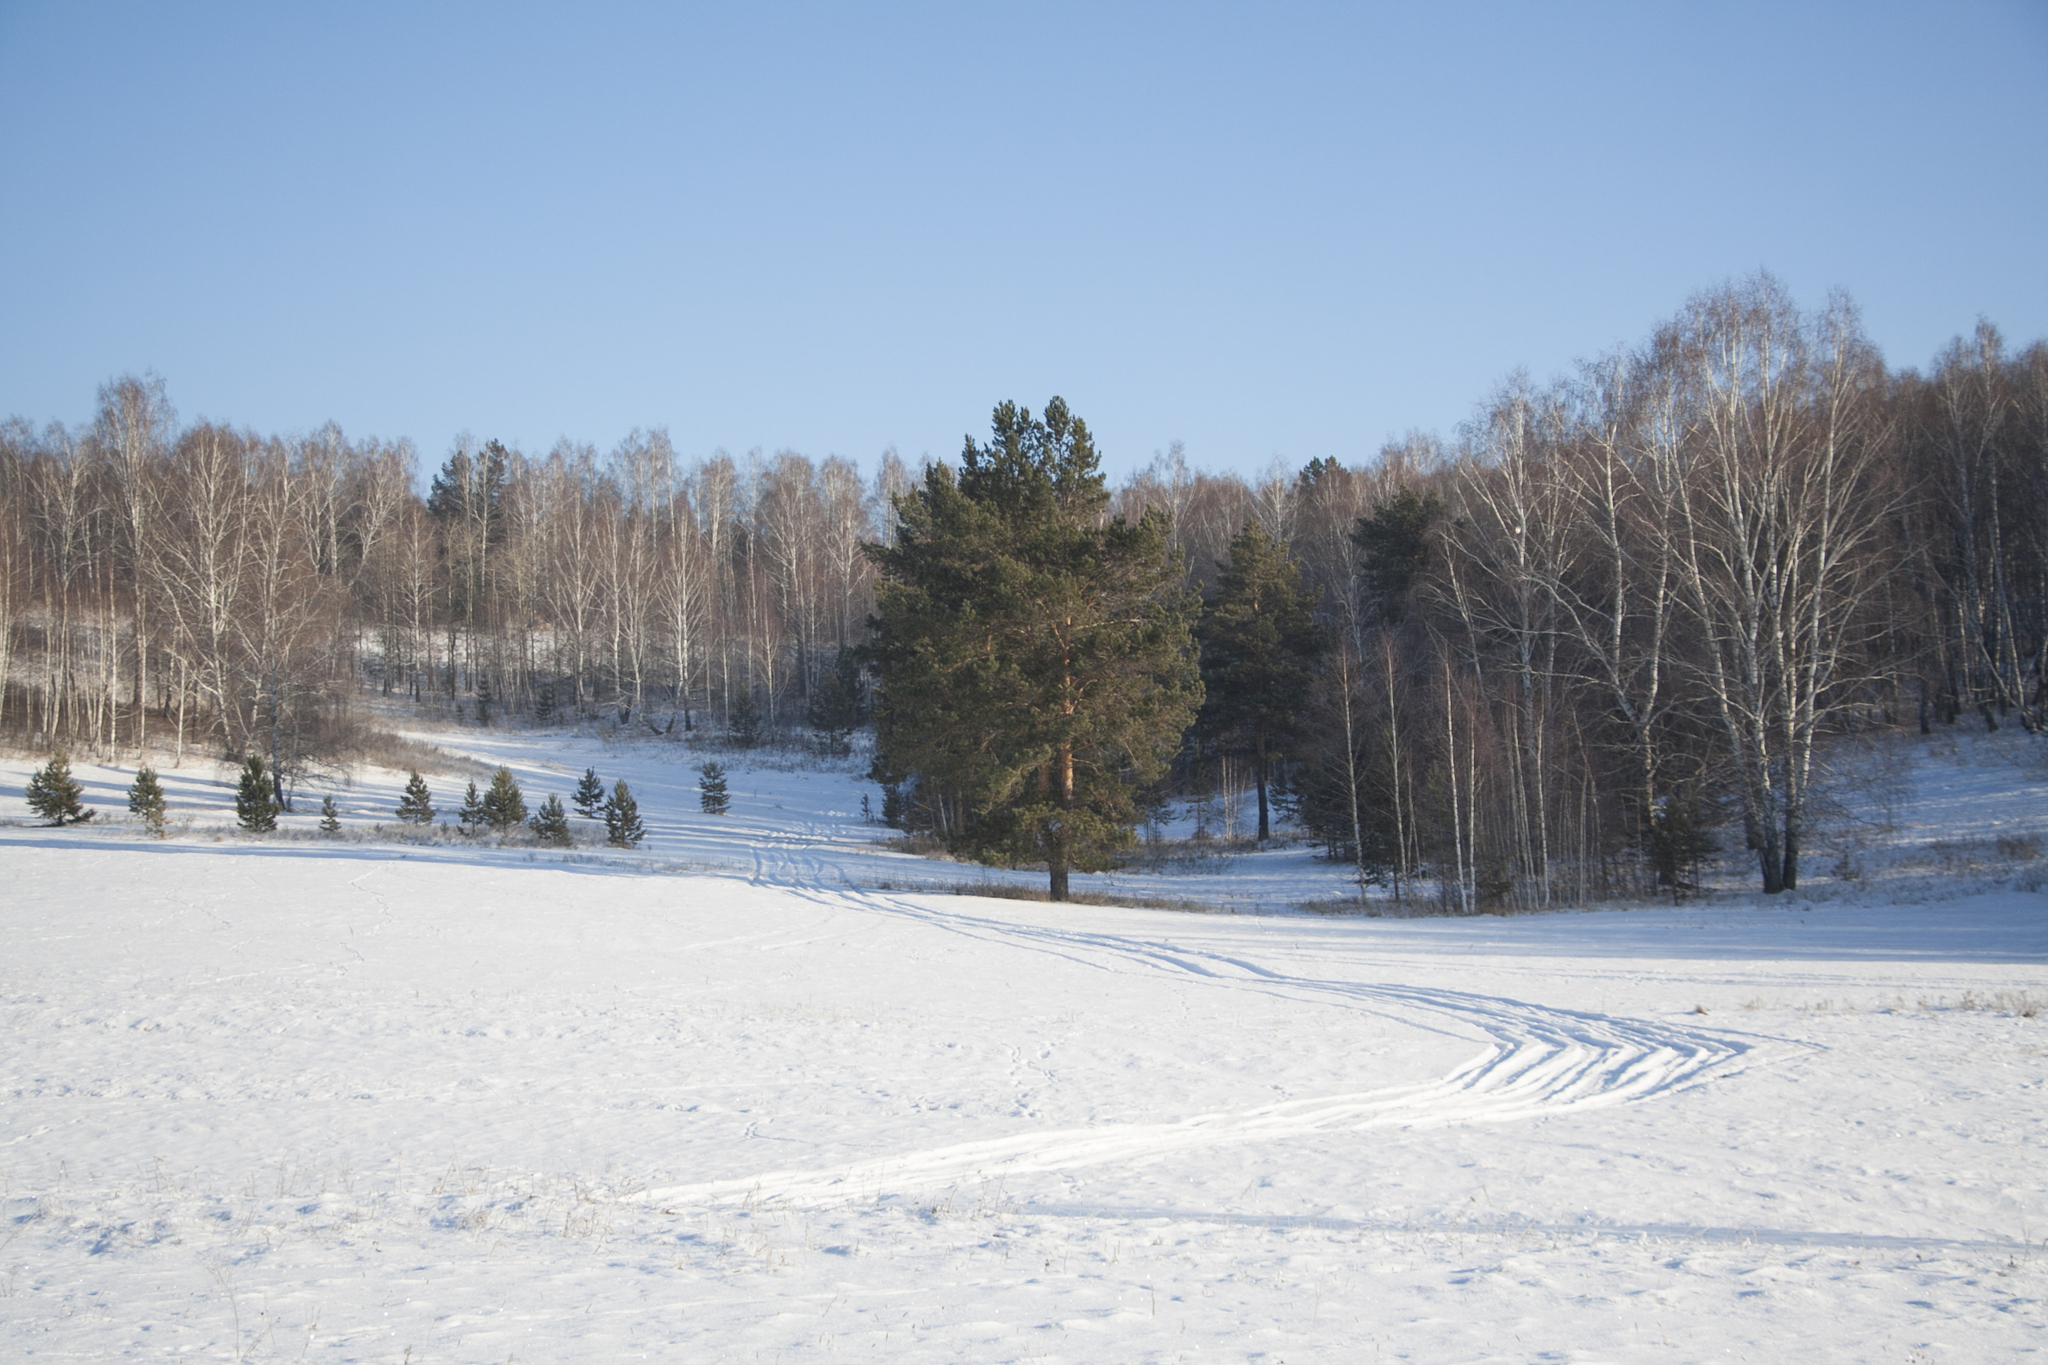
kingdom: Plantae
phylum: Tracheophyta
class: Pinopsida
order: Pinales
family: Pinaceae
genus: Pinus
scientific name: Pinus sylvestris
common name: Scots pine
